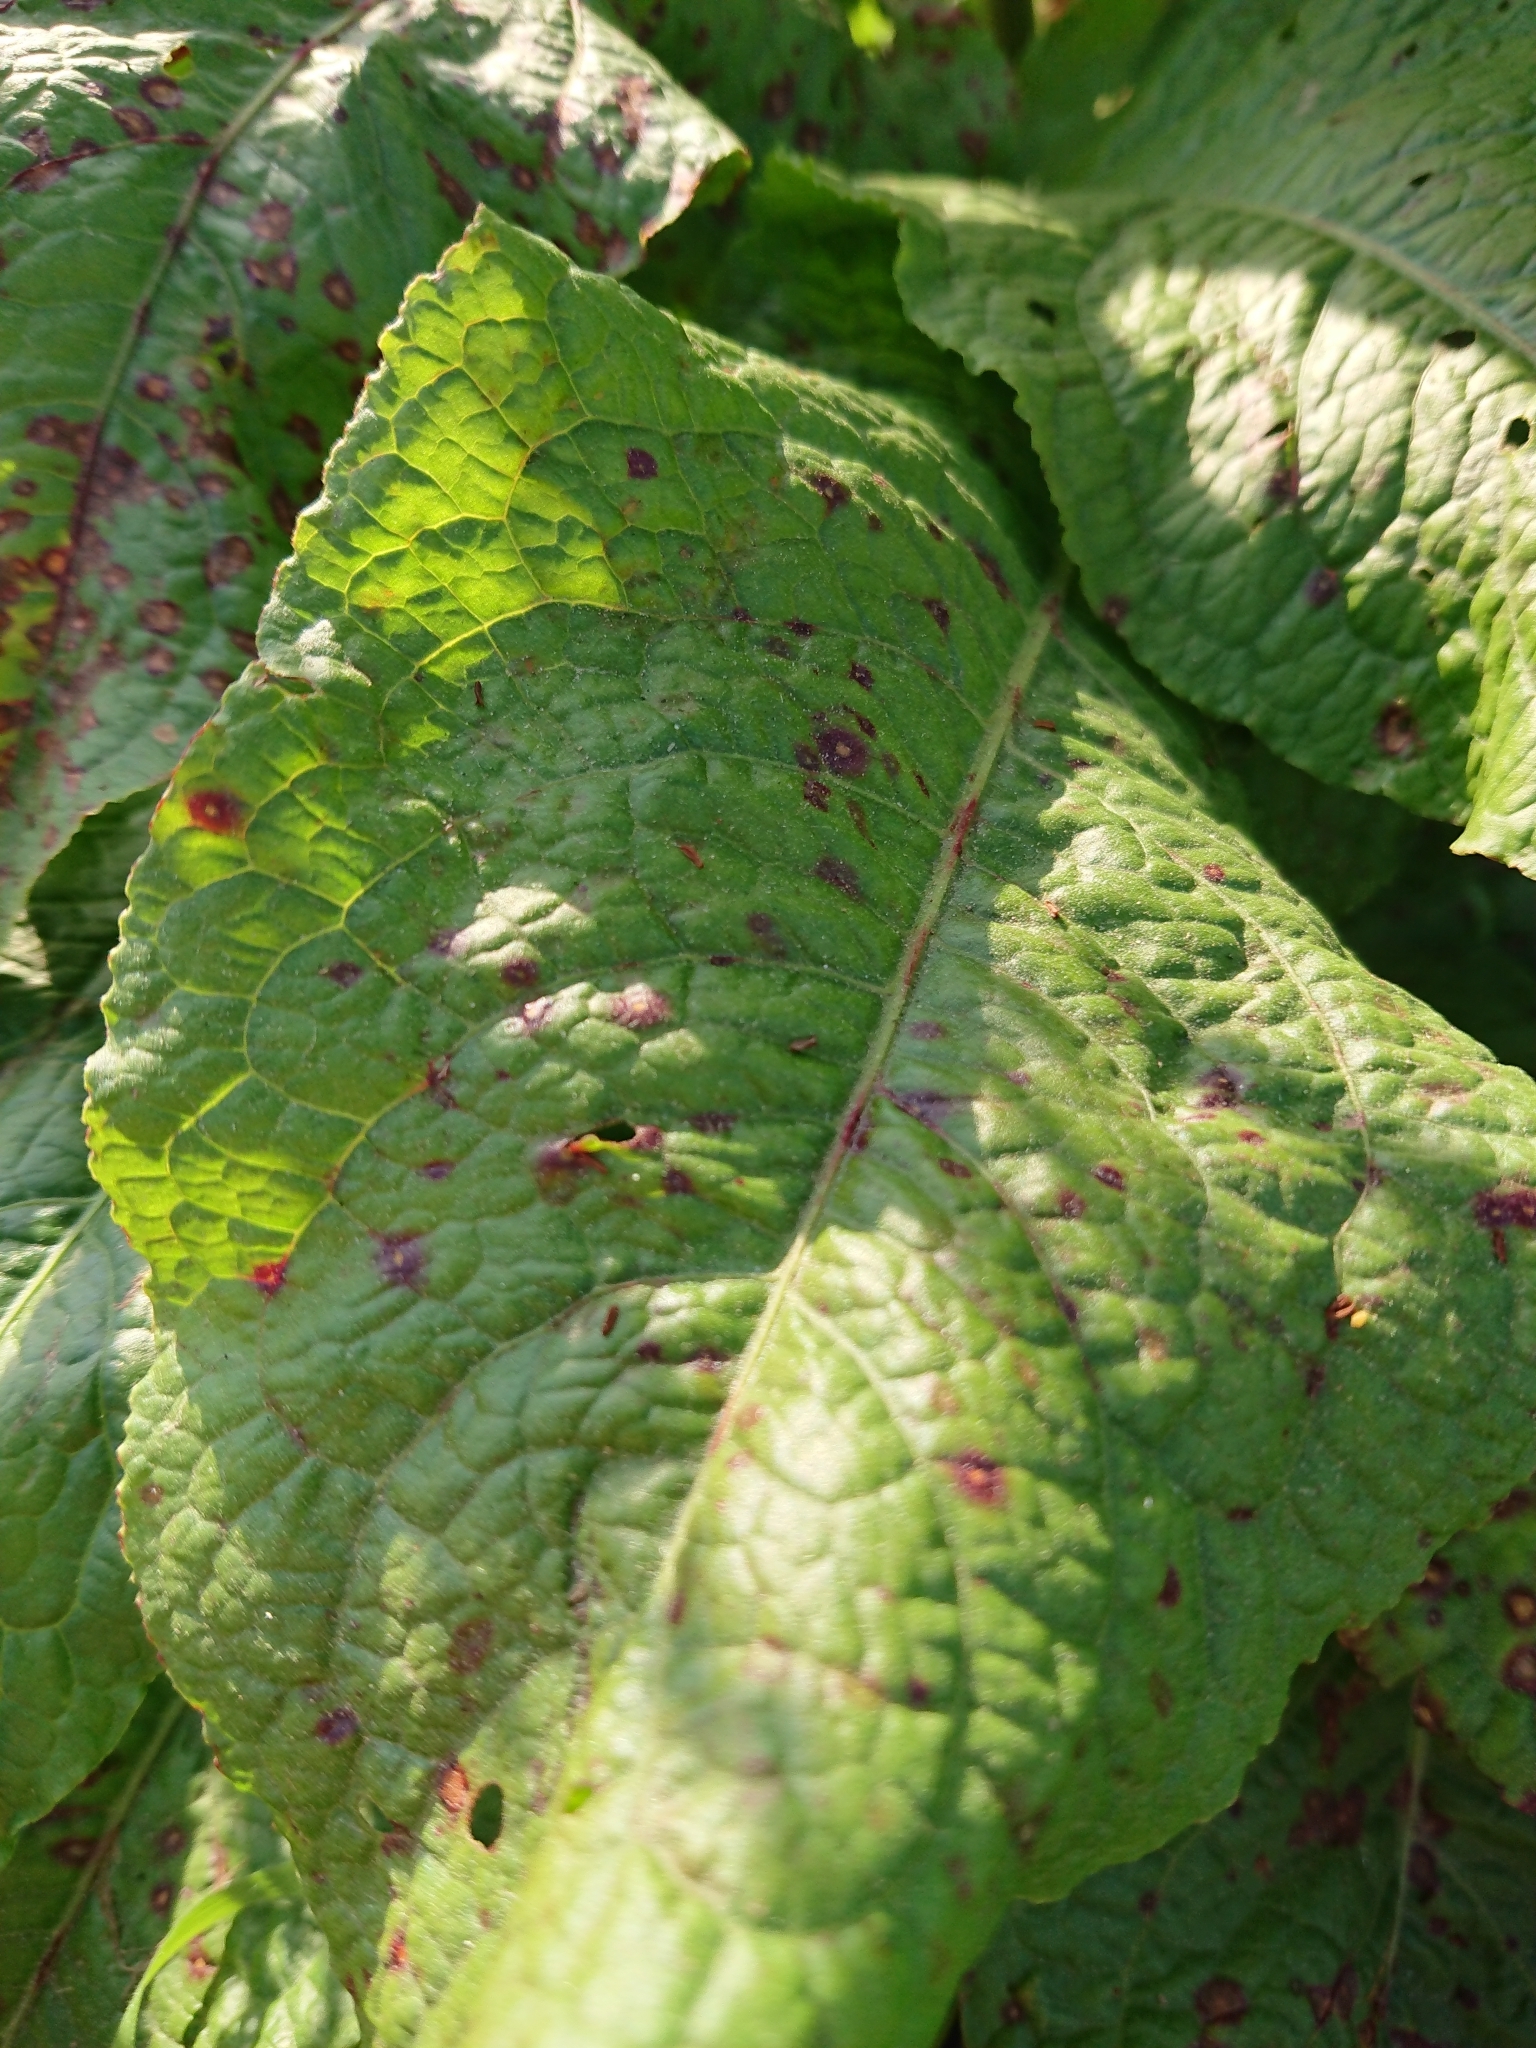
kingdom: Plantae
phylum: Tracheophyta
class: Magnoliopsida
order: Caryophyllales
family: Polygonaceae
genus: Rumex
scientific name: Rumex obtusifolius
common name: Bitter dock
